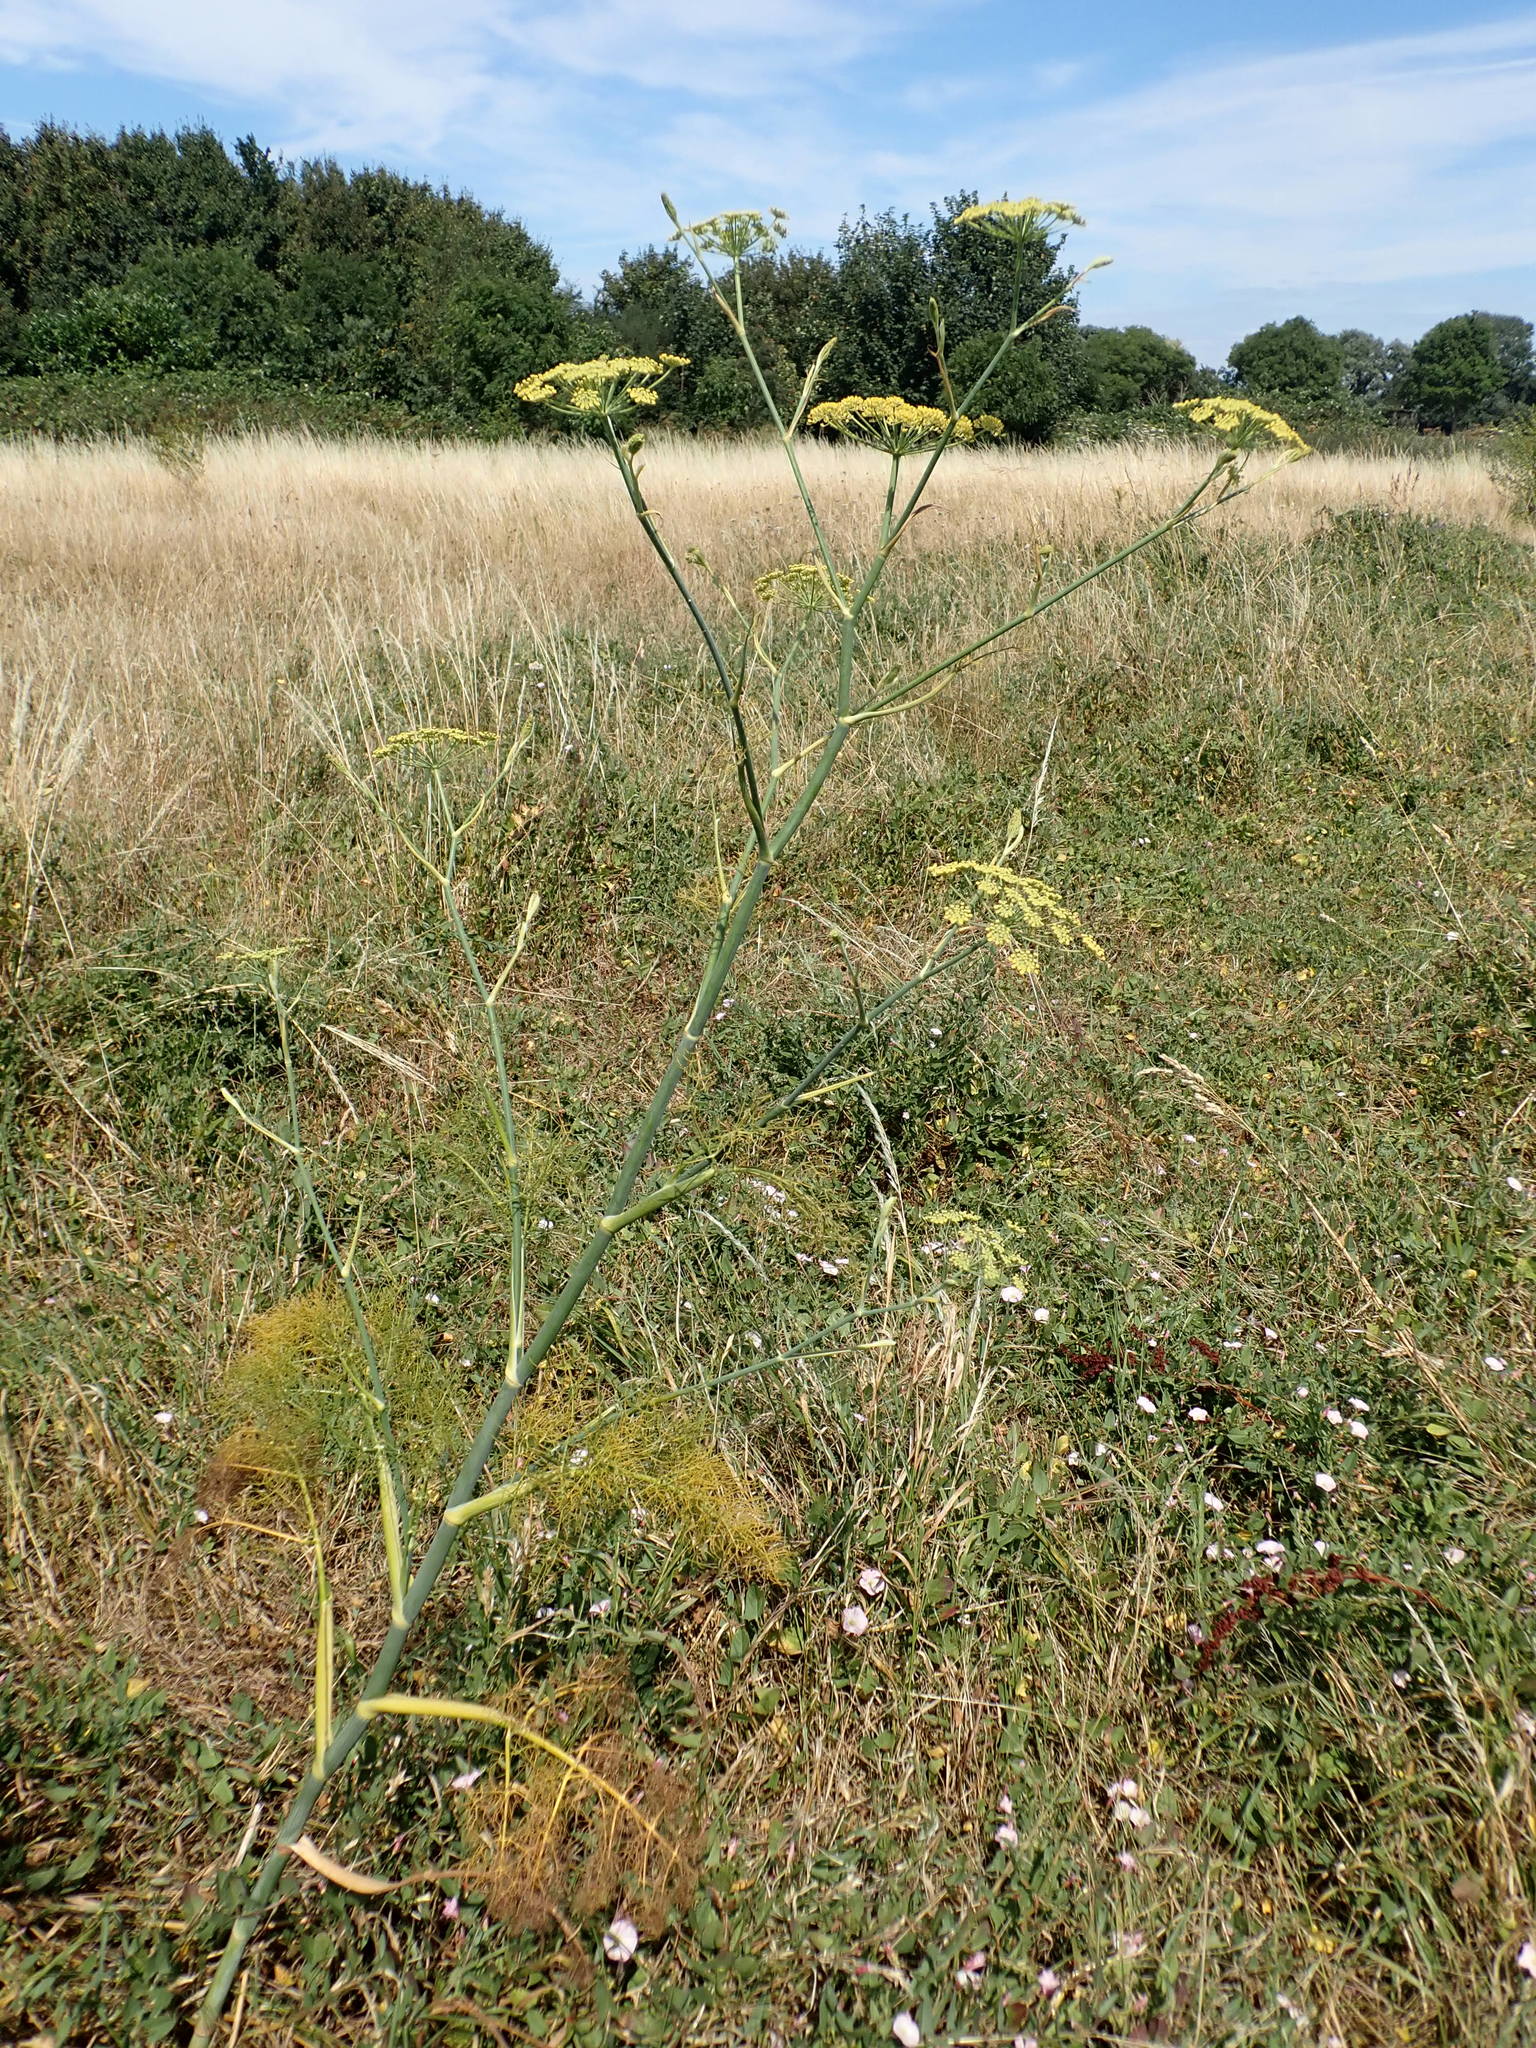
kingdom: Plantae
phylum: Tracheophyta
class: Magnoliopsida
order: Apiales
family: Apiaceae
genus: Foeniculum
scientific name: Foeniculum vulgare
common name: Fennel
